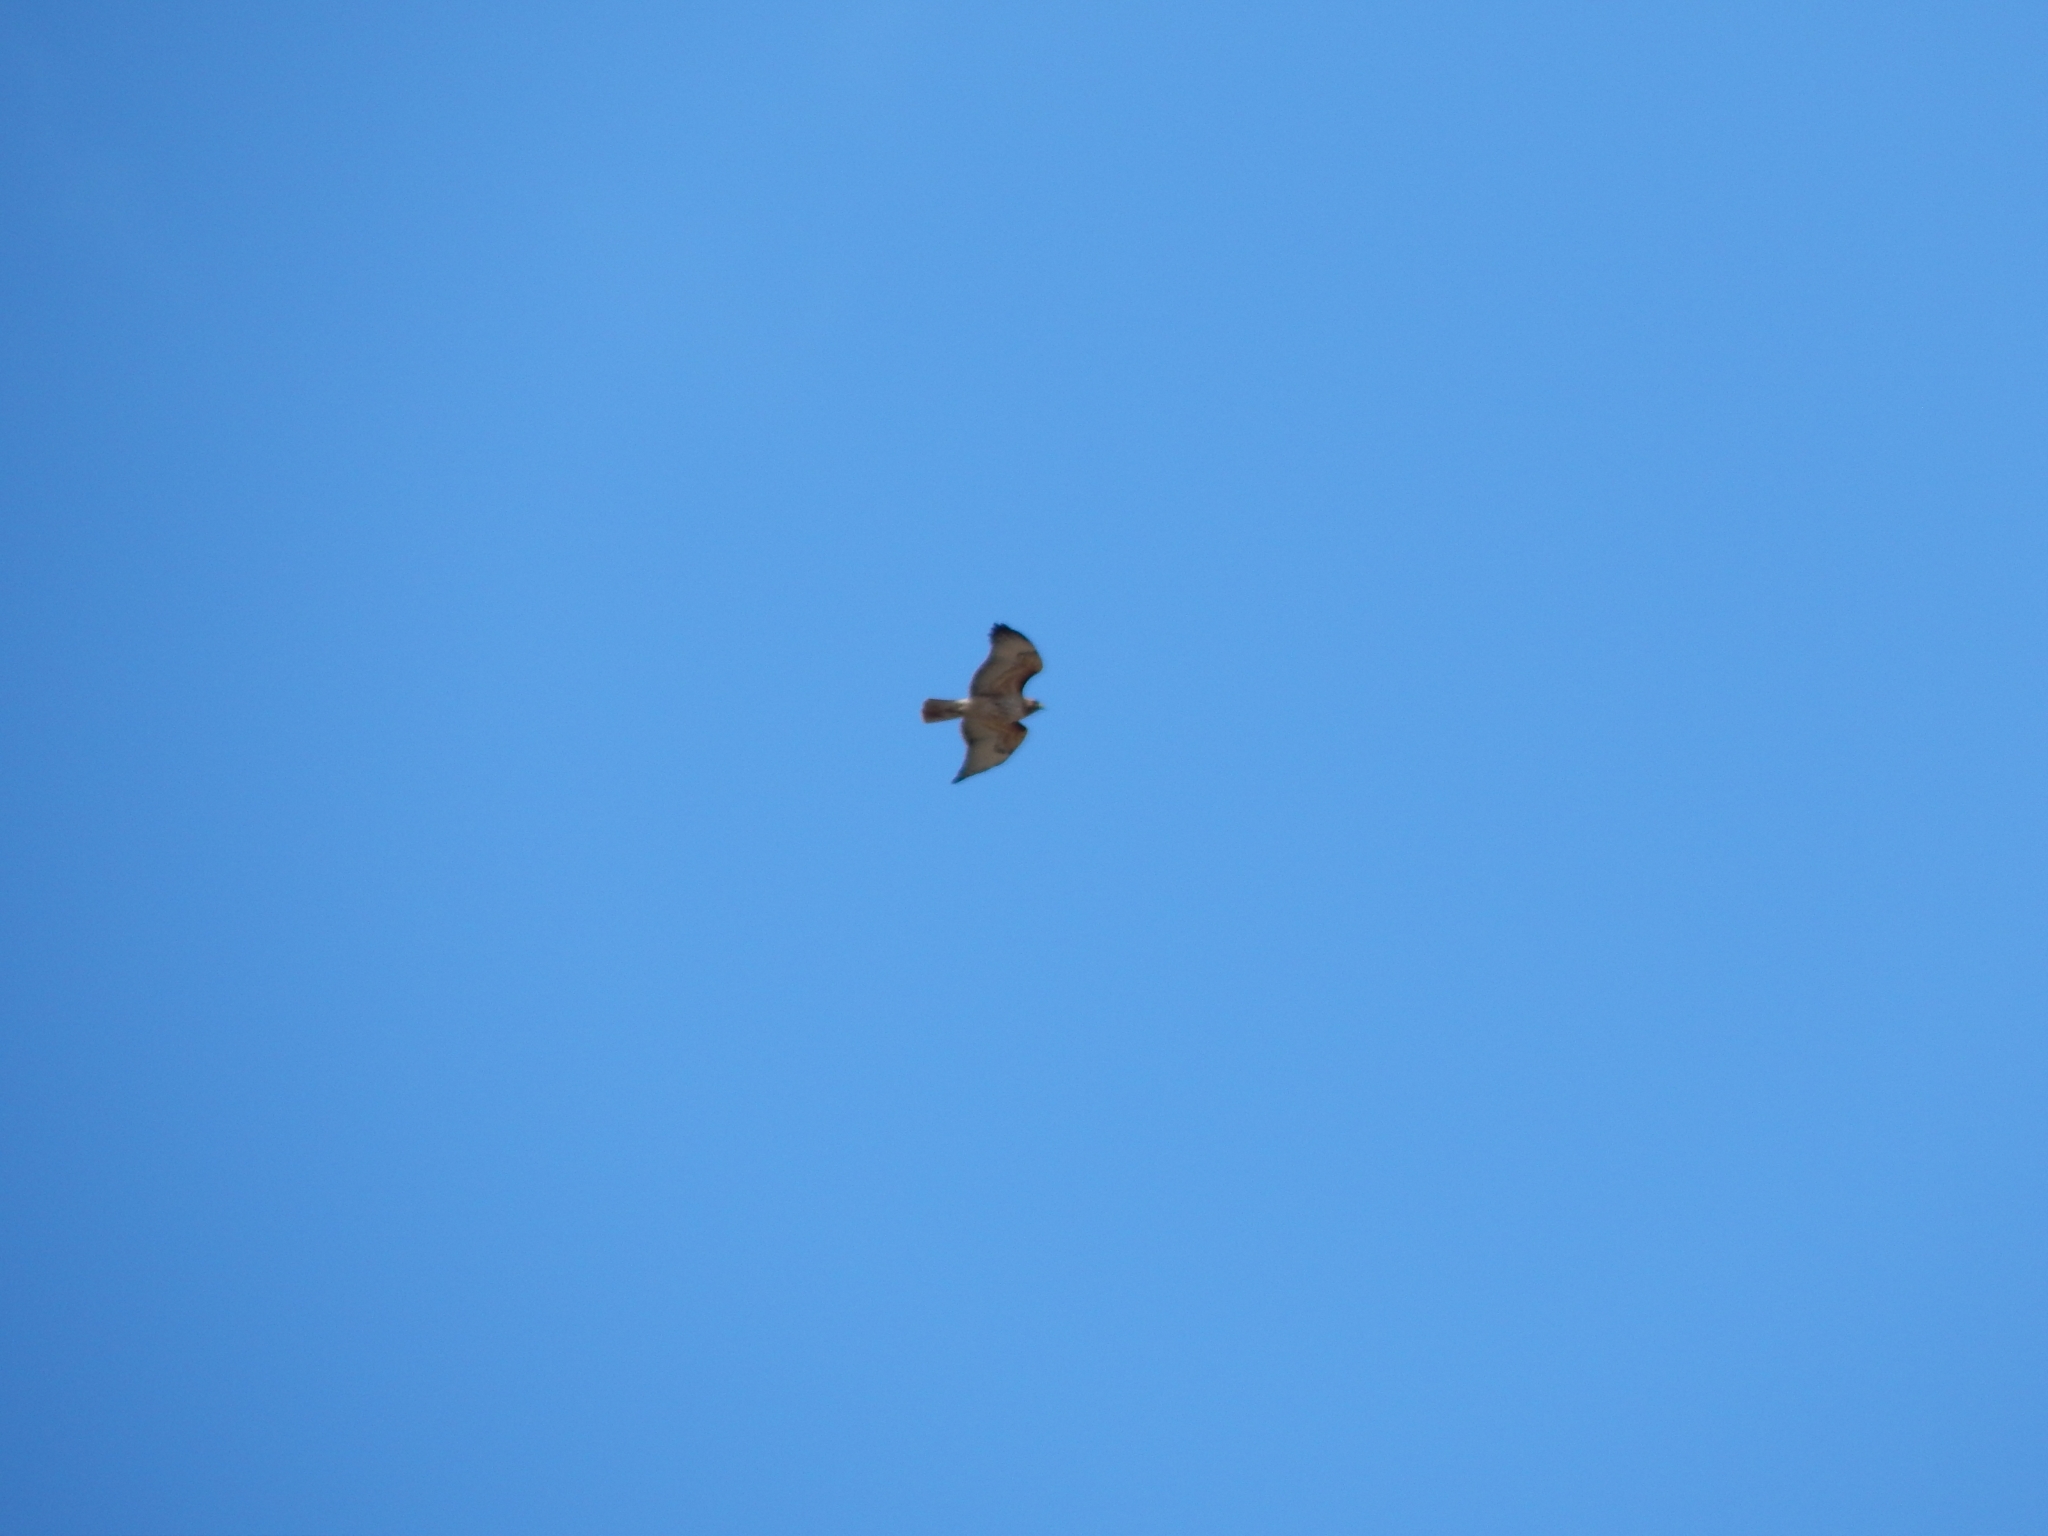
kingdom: Animalia
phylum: Chordata
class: Aves
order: Accipitriformes
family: Accipitridae
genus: Buteo
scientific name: Buteo jamaicensis
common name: Red-tailed hawk
